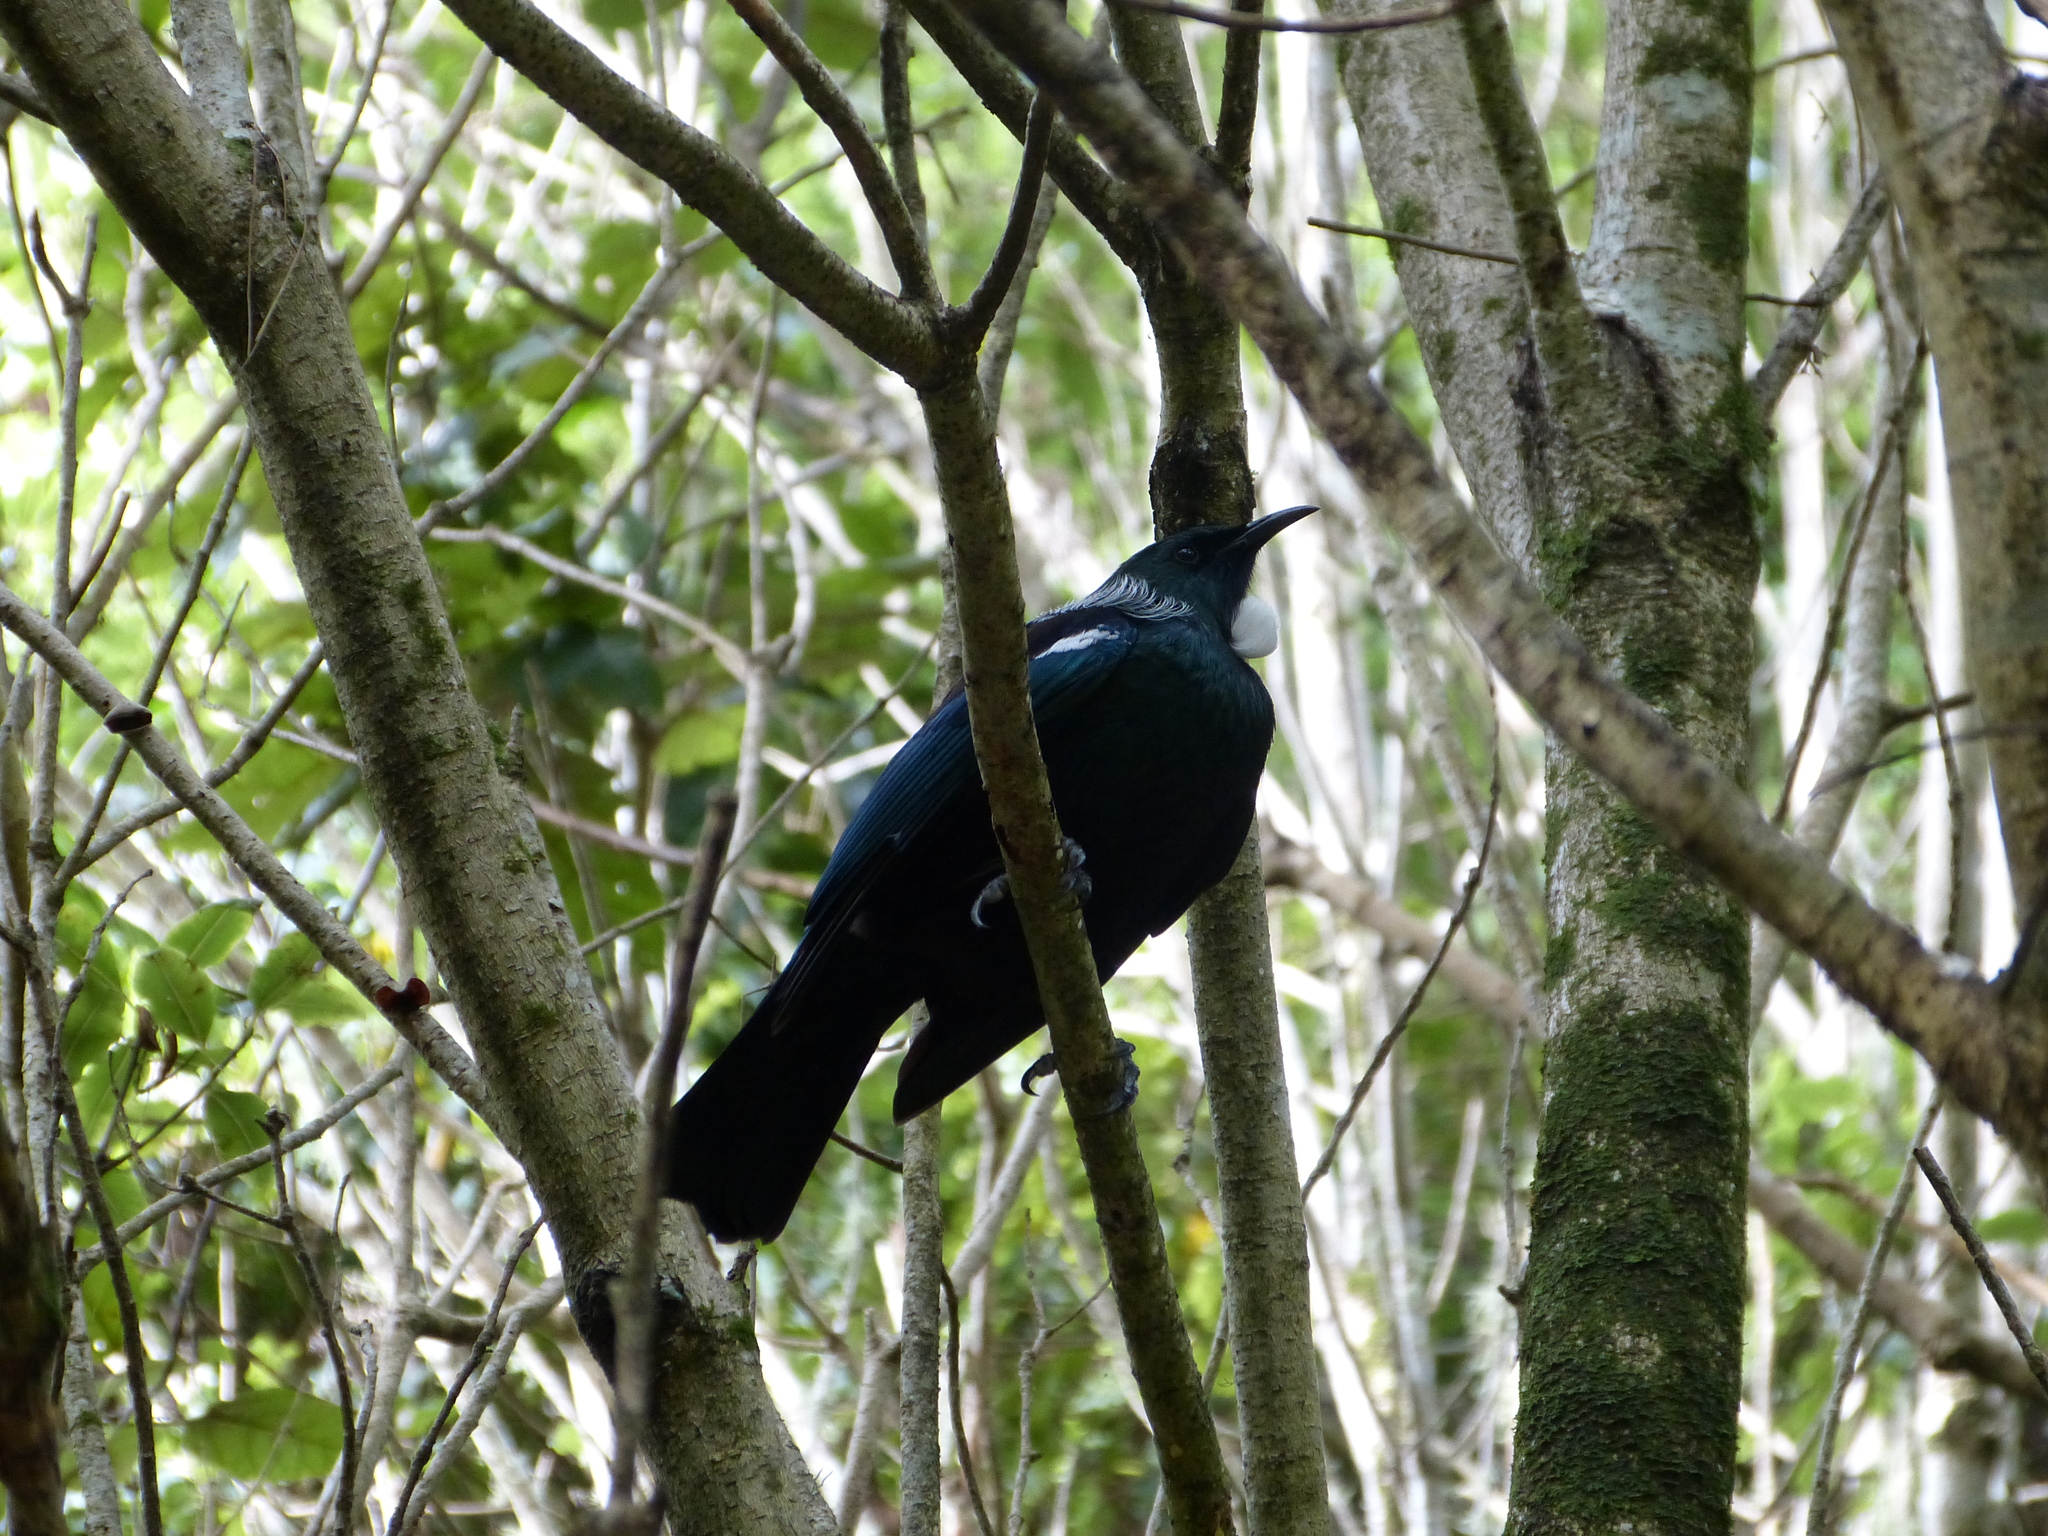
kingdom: Animalia
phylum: Chordata
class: Aves
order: Passeriformes
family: Meliphagidae
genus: Prosthemadera
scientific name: Prosthemadera novaeseelandiae
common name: Tui
